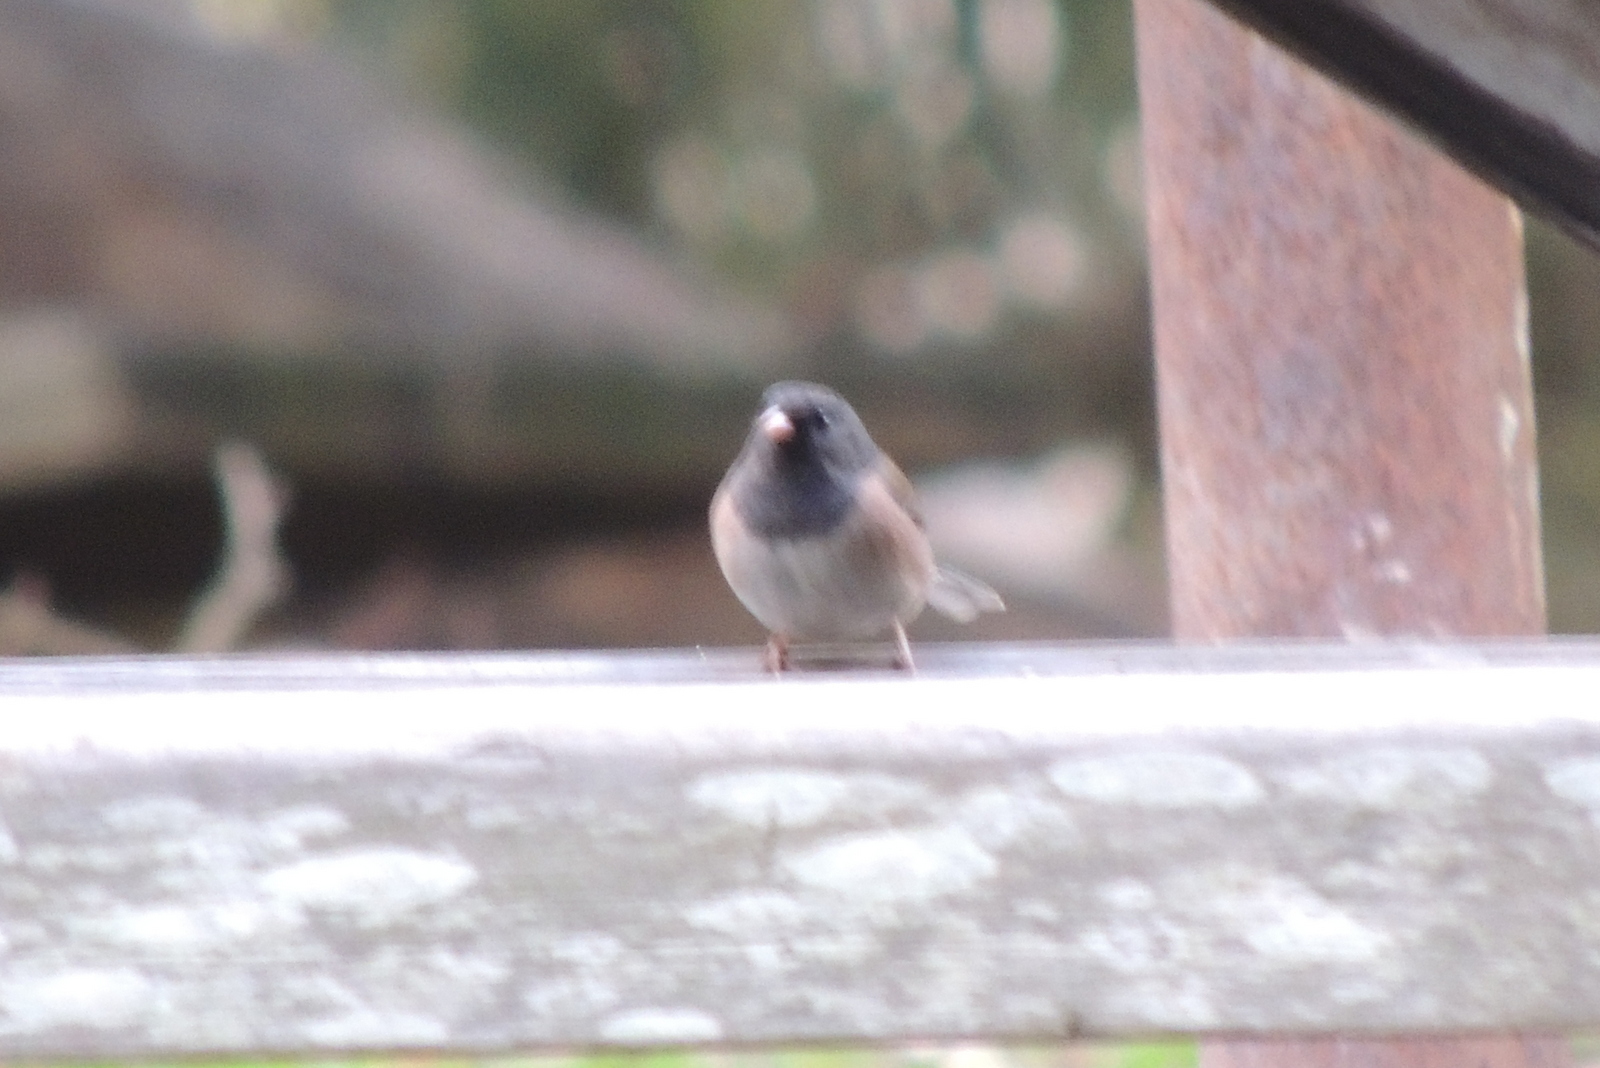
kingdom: Animalia
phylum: Chordata
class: Aves
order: Passeriformes
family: Passerellidae
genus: Junco
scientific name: Junco hyemalis
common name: Dark-eyed junco
